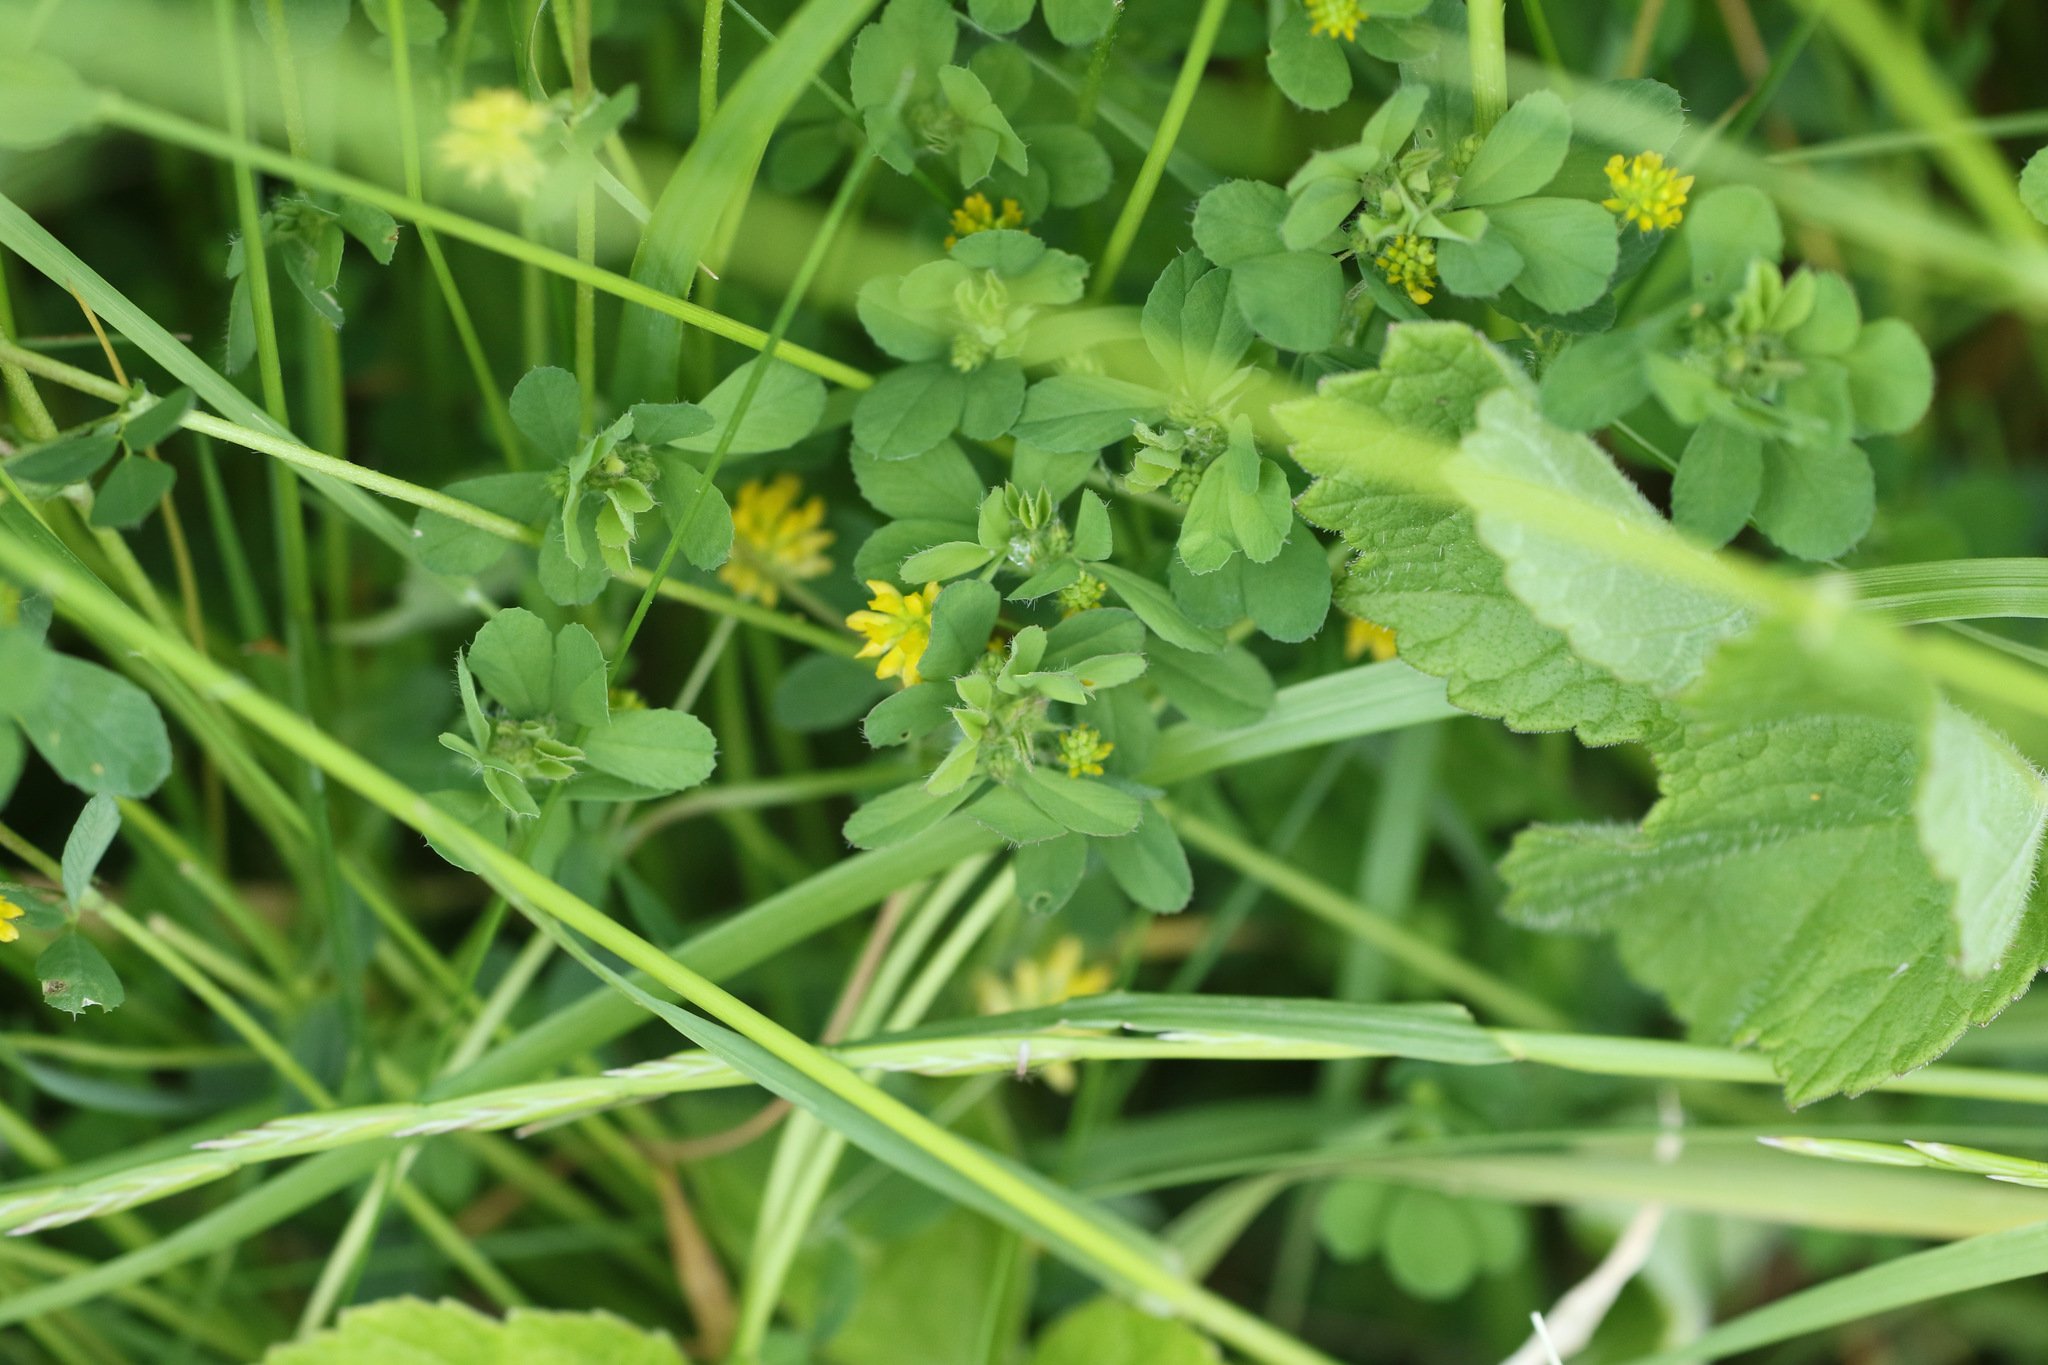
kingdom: Plantae
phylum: Tracheophyta
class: Magnoliopsida
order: Fabales
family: Fabaceae
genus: Trifolium
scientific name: Trifolium dubium
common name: Suckling clover
